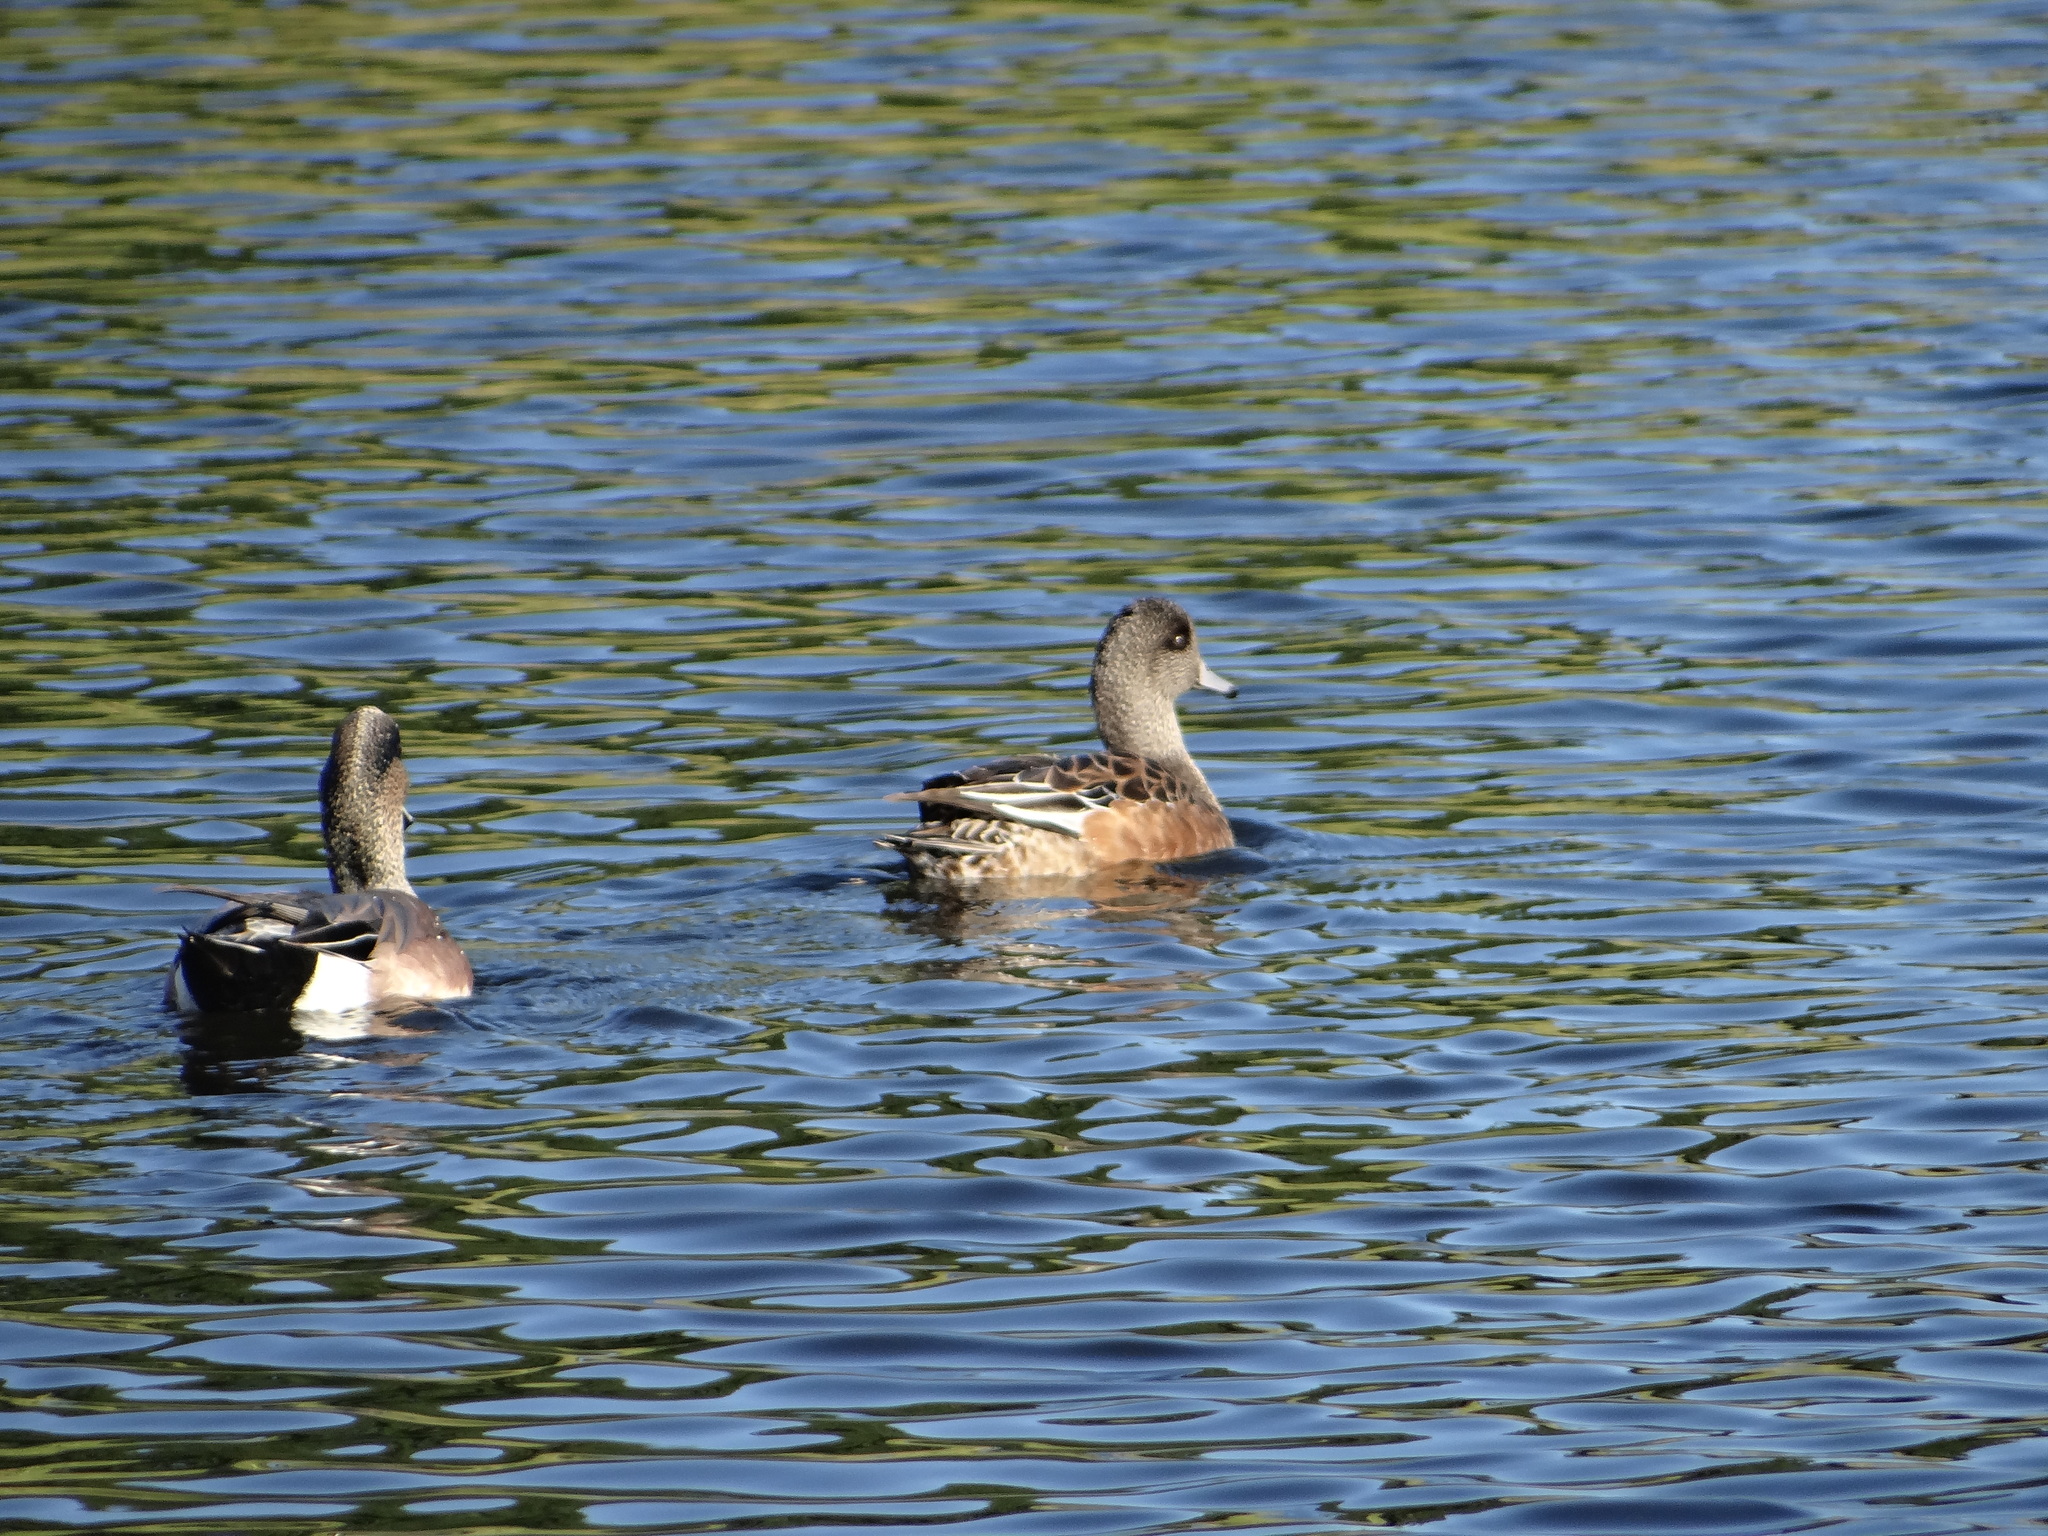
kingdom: Animalia
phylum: Chordata
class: Aves
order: Anseriformes
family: Anatidae
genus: Mareca
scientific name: Mareca americana
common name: American wigeon
